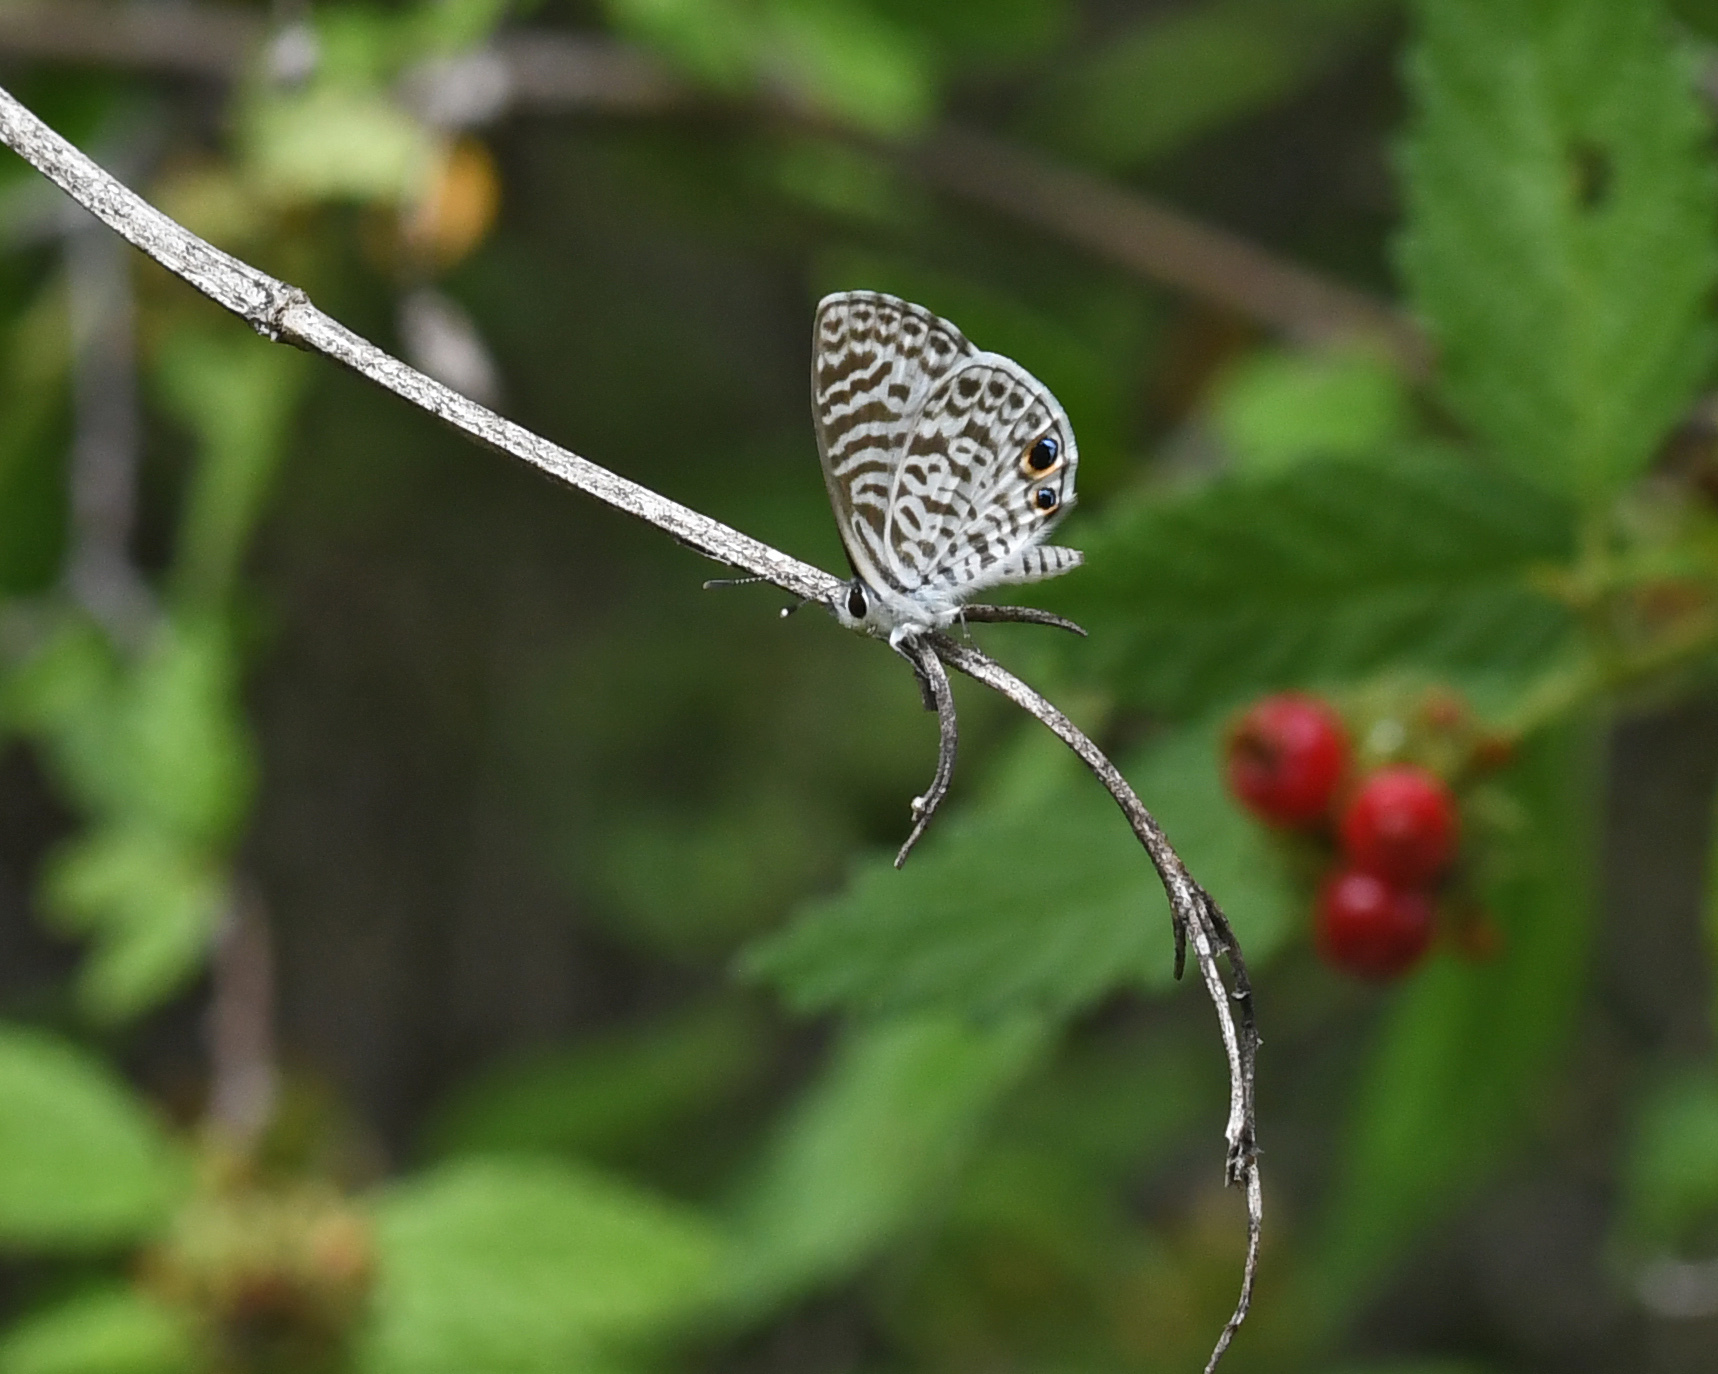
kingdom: Animalia
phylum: Arthropoda
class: Insecta
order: Lepidoptera
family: Lycaenidae
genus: Leptotes
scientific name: Leptotes cassius
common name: Cassius blue
